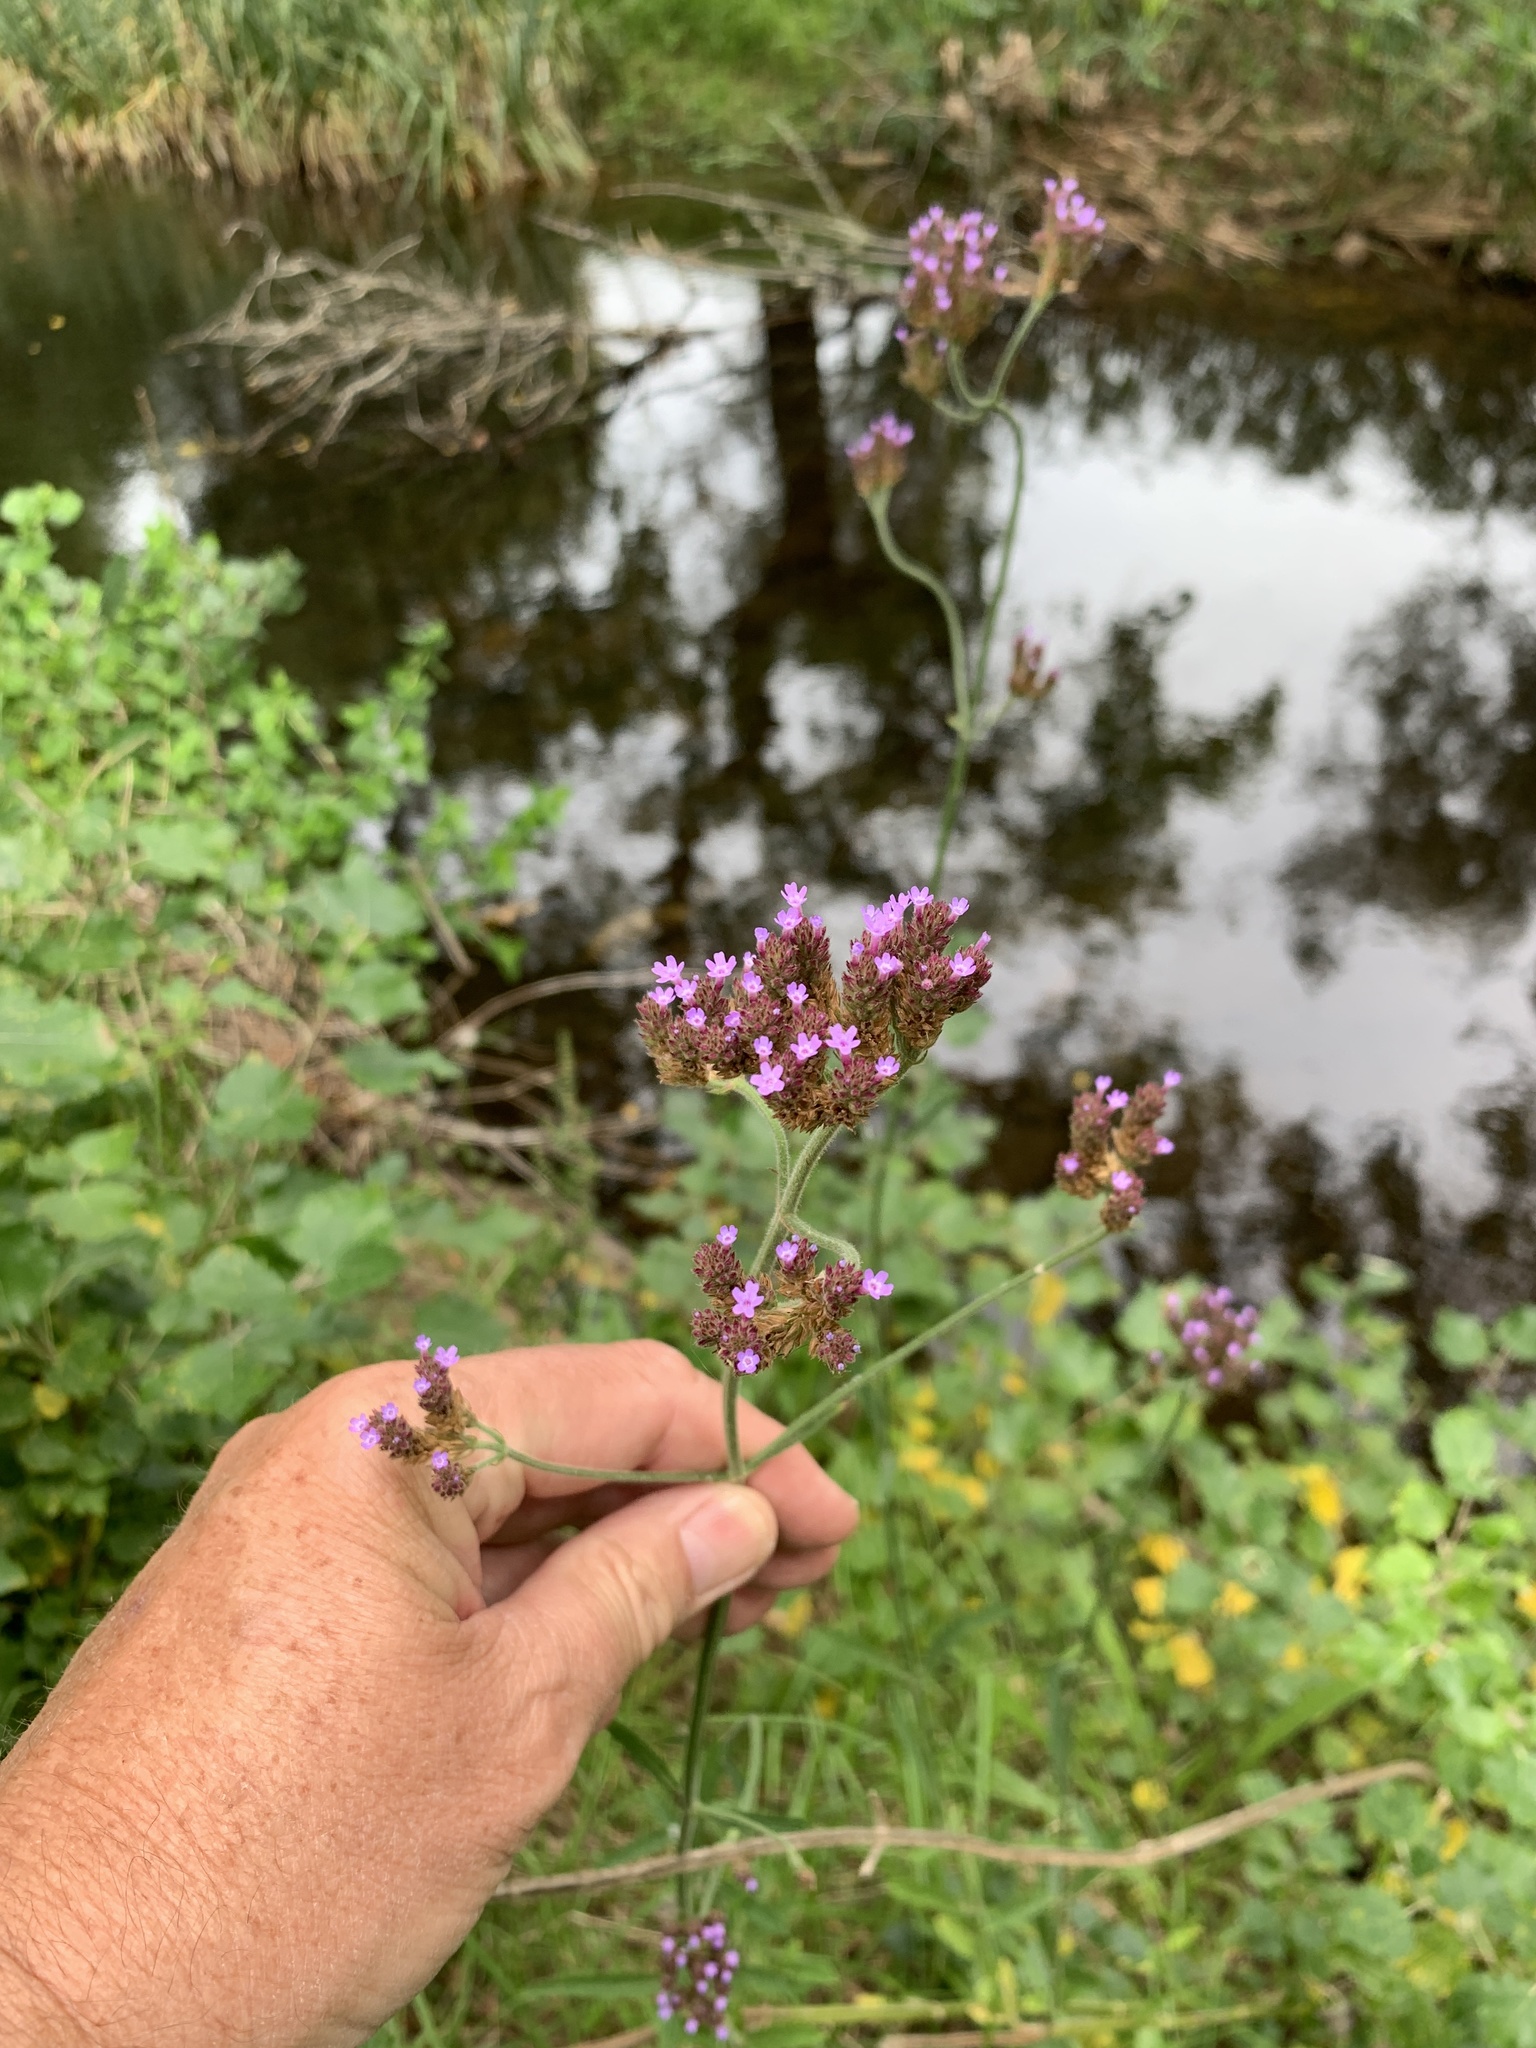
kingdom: Plantae
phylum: Tracheophyta
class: Magnoliopsida
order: Lamiales
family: Verbenaceae
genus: Verbena
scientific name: Verbena bonariensis
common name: Purpletop vervain
